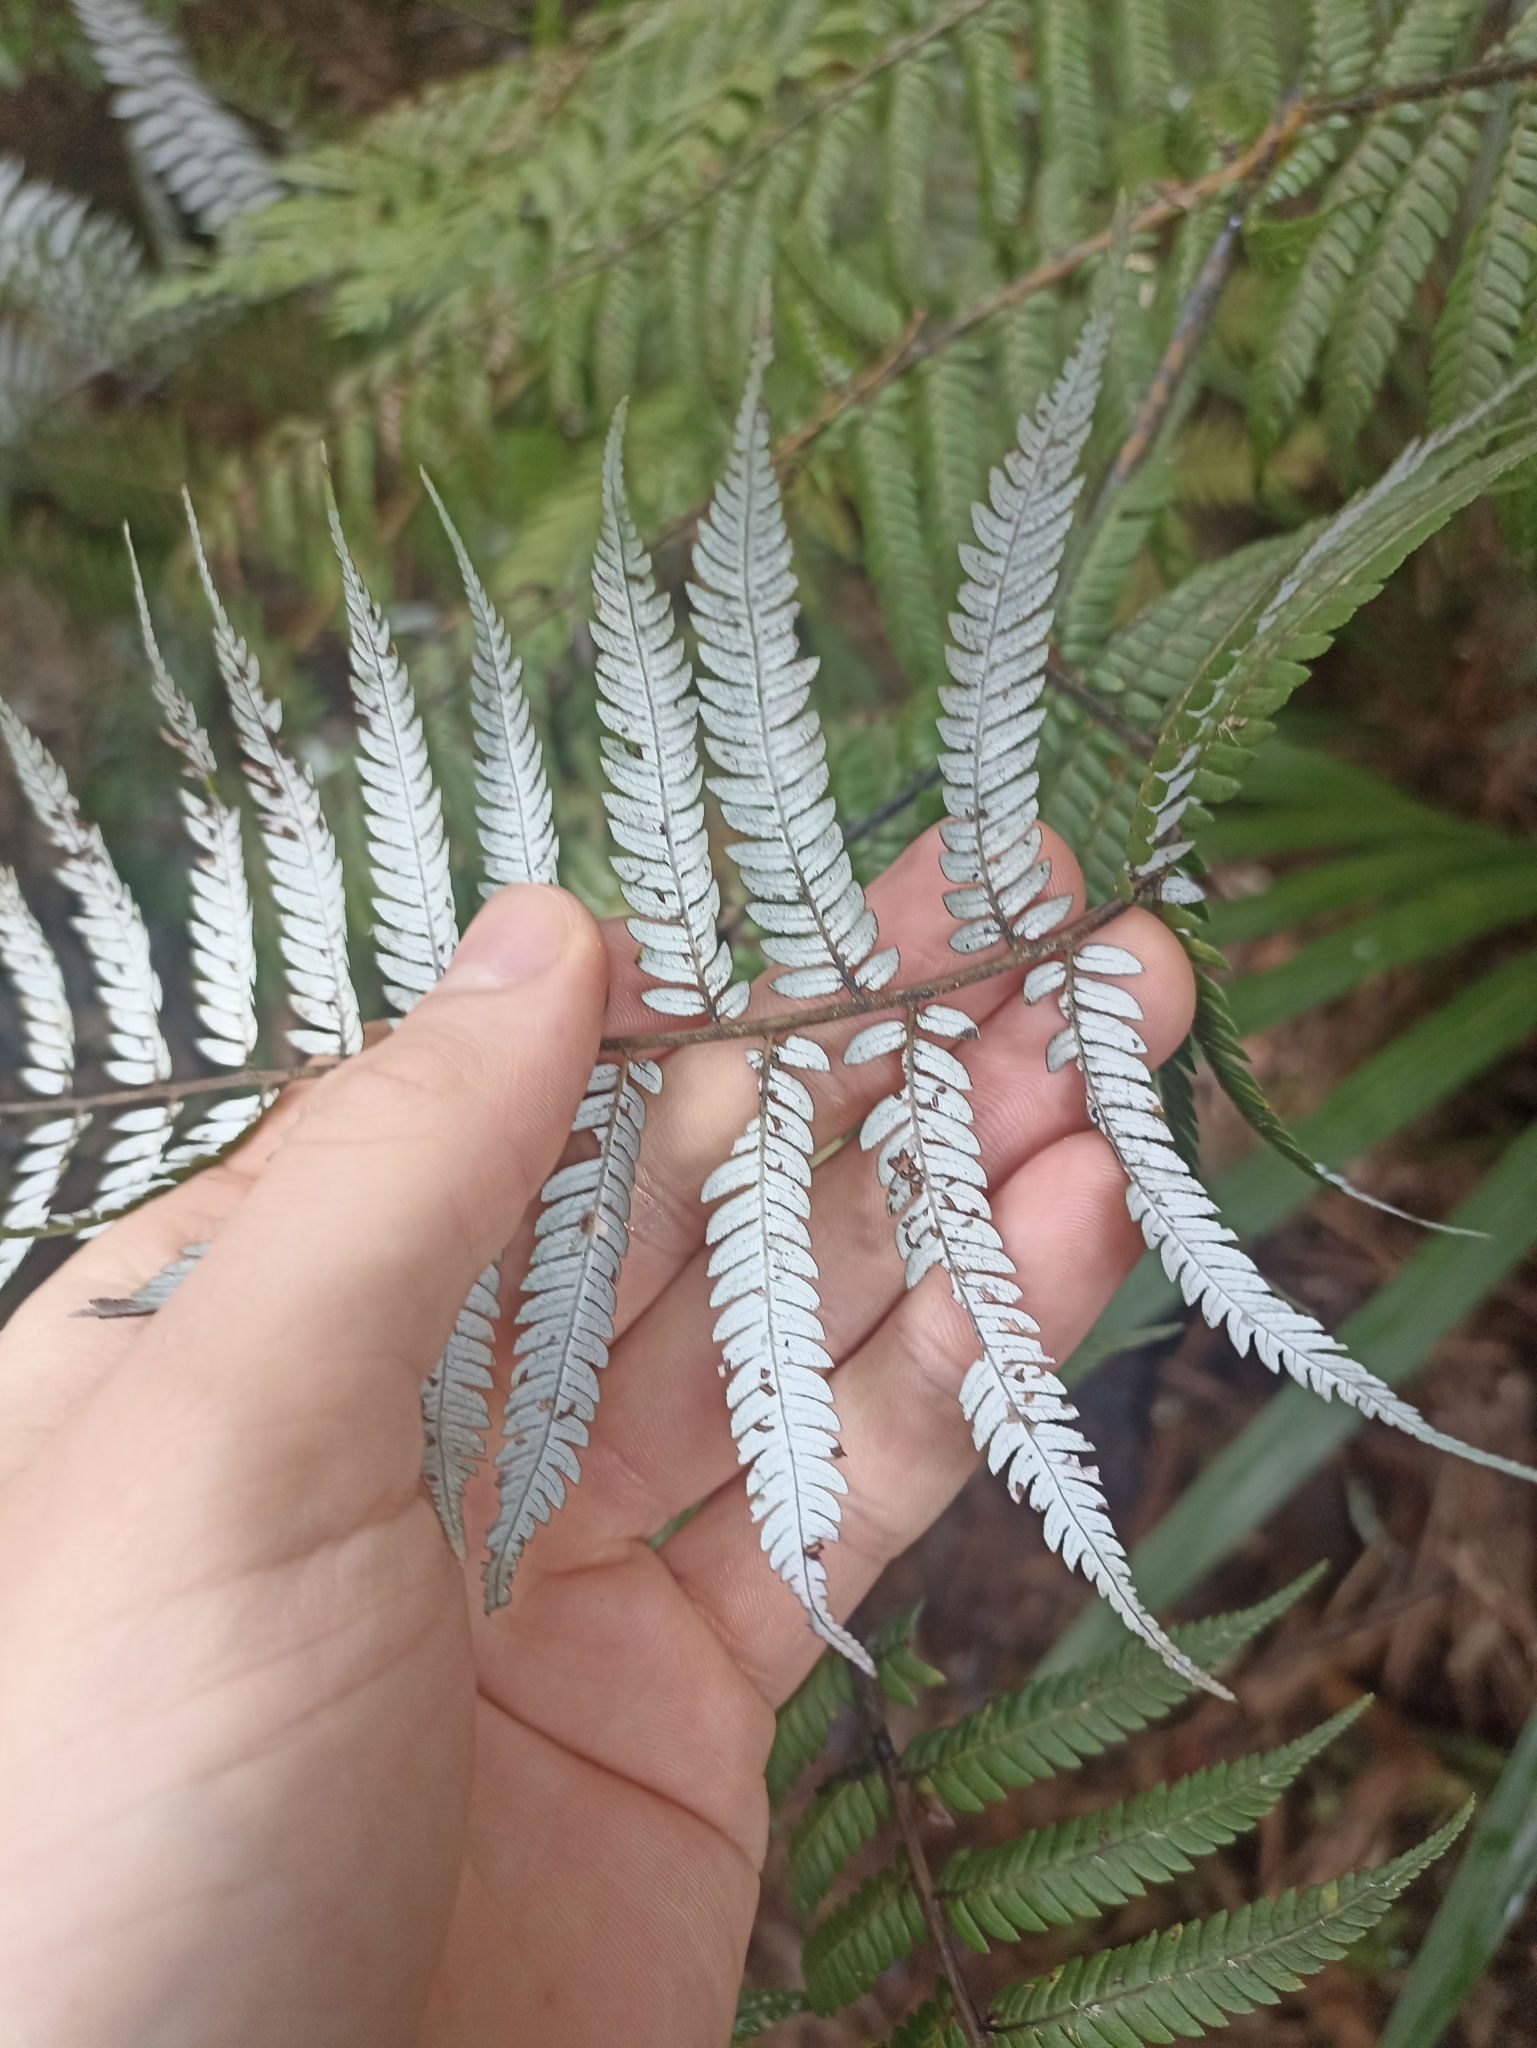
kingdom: Plantae
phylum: Tracheophyta
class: Polypodiopsida
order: Cyatheales
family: Cyatheaceae
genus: Alsophila
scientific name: Alsophila dealbata
